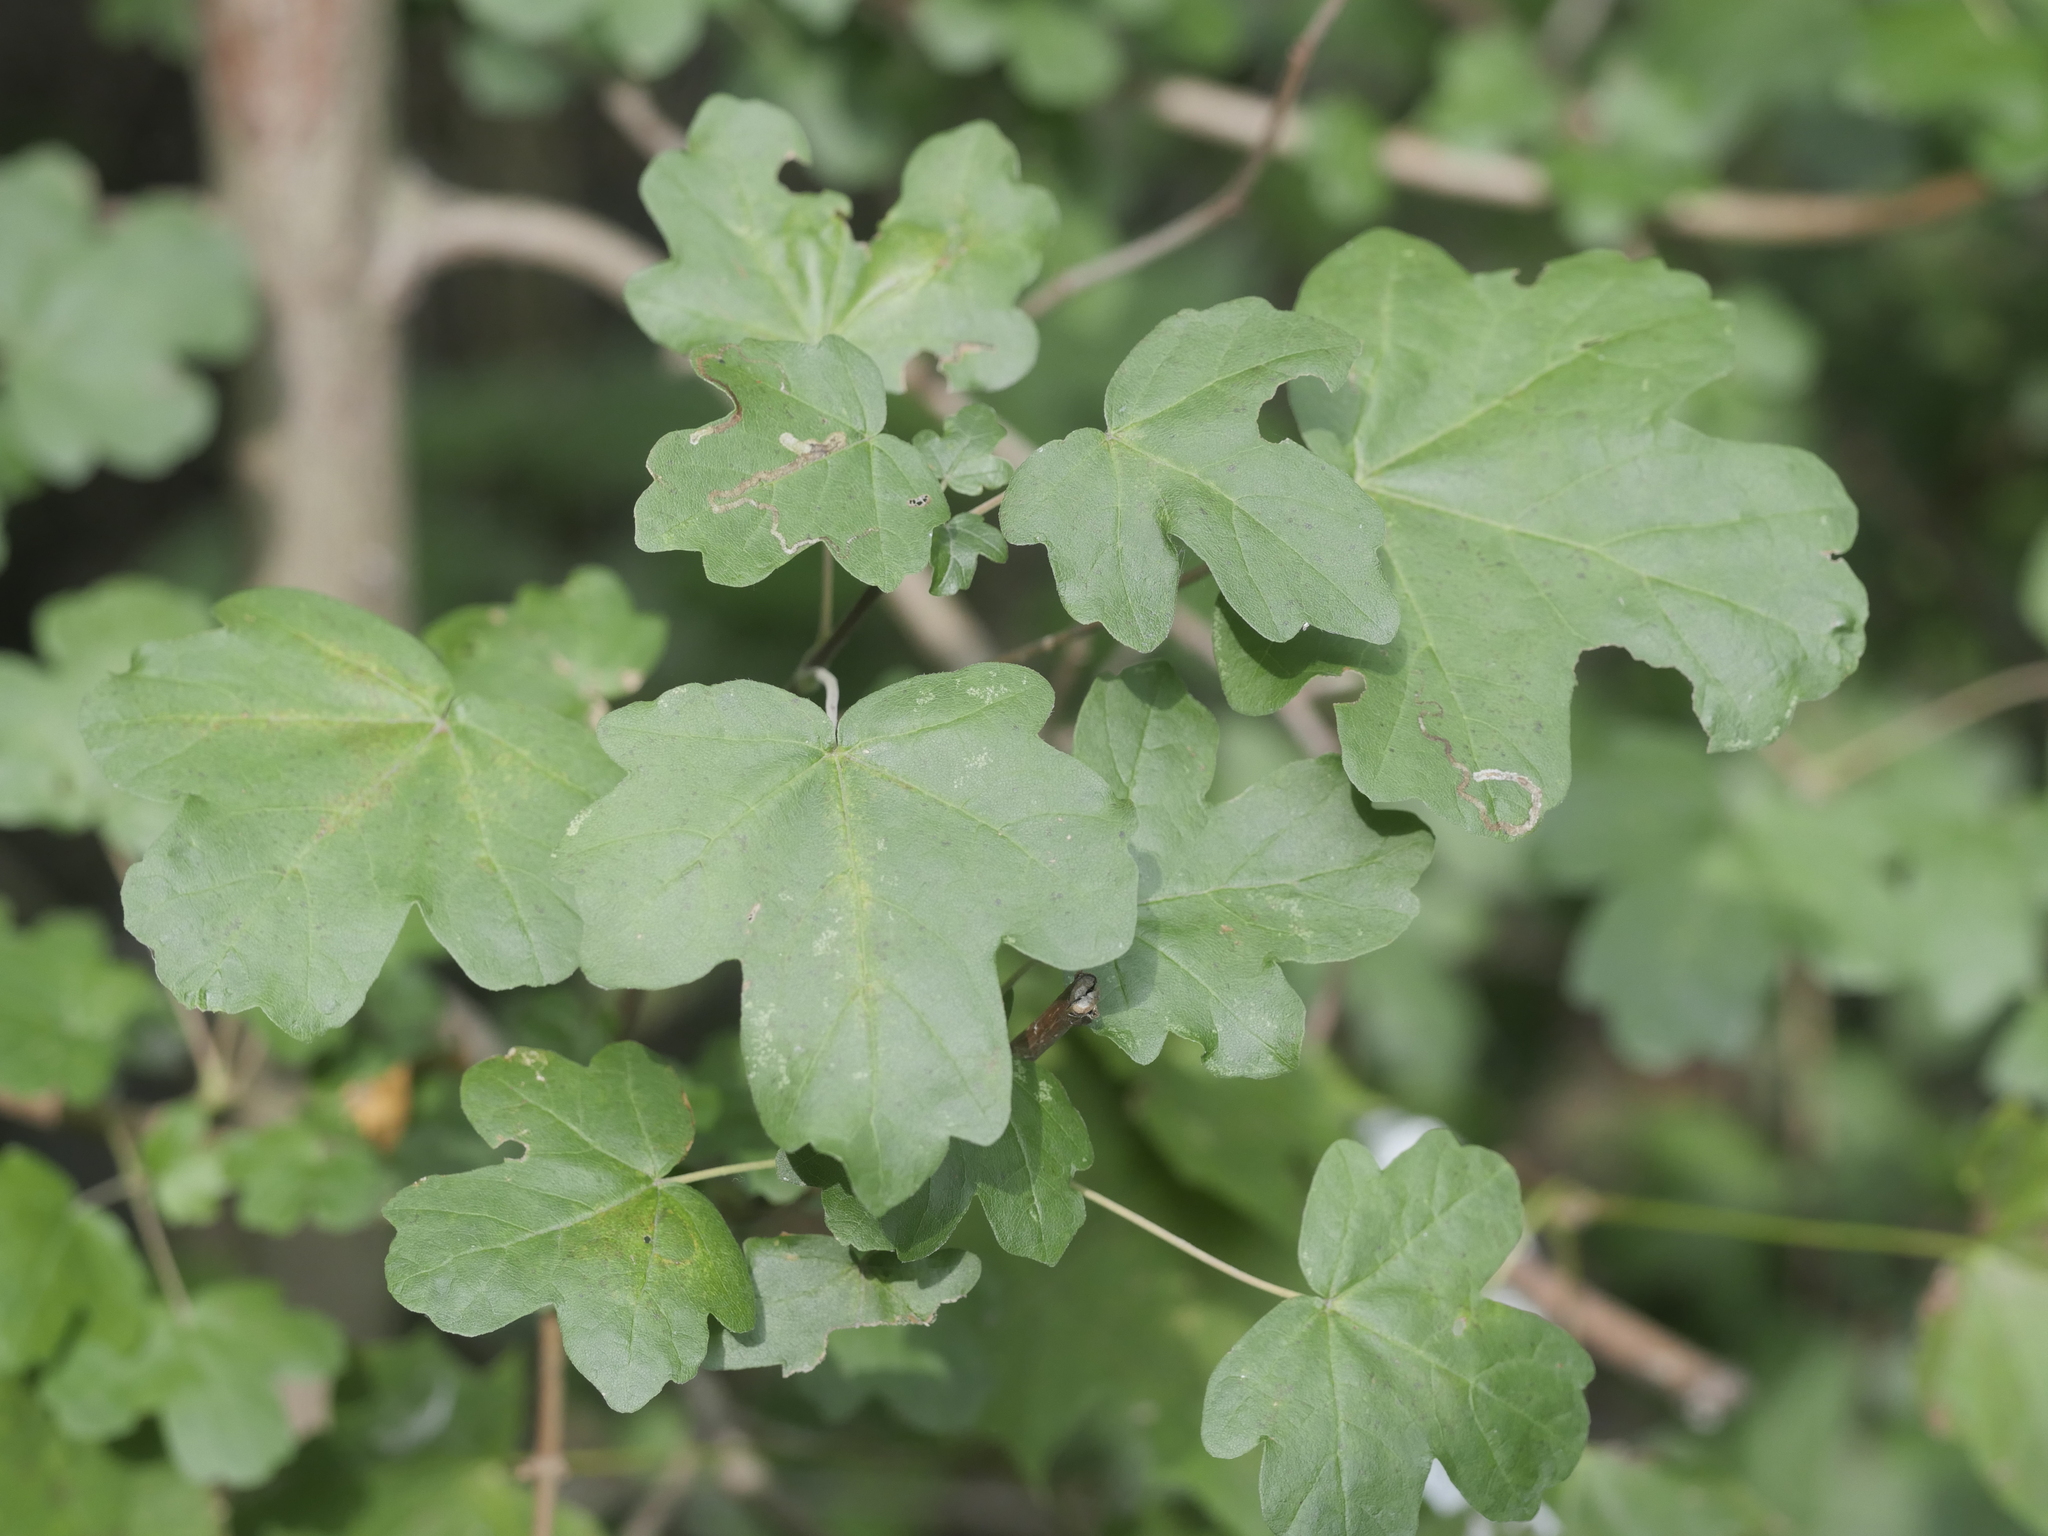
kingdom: Plantae
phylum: Tracheophyta
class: Magnoliopsida
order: Sapindales
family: Sapindaceae
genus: Acer
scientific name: Acer campestre
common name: Field maple
